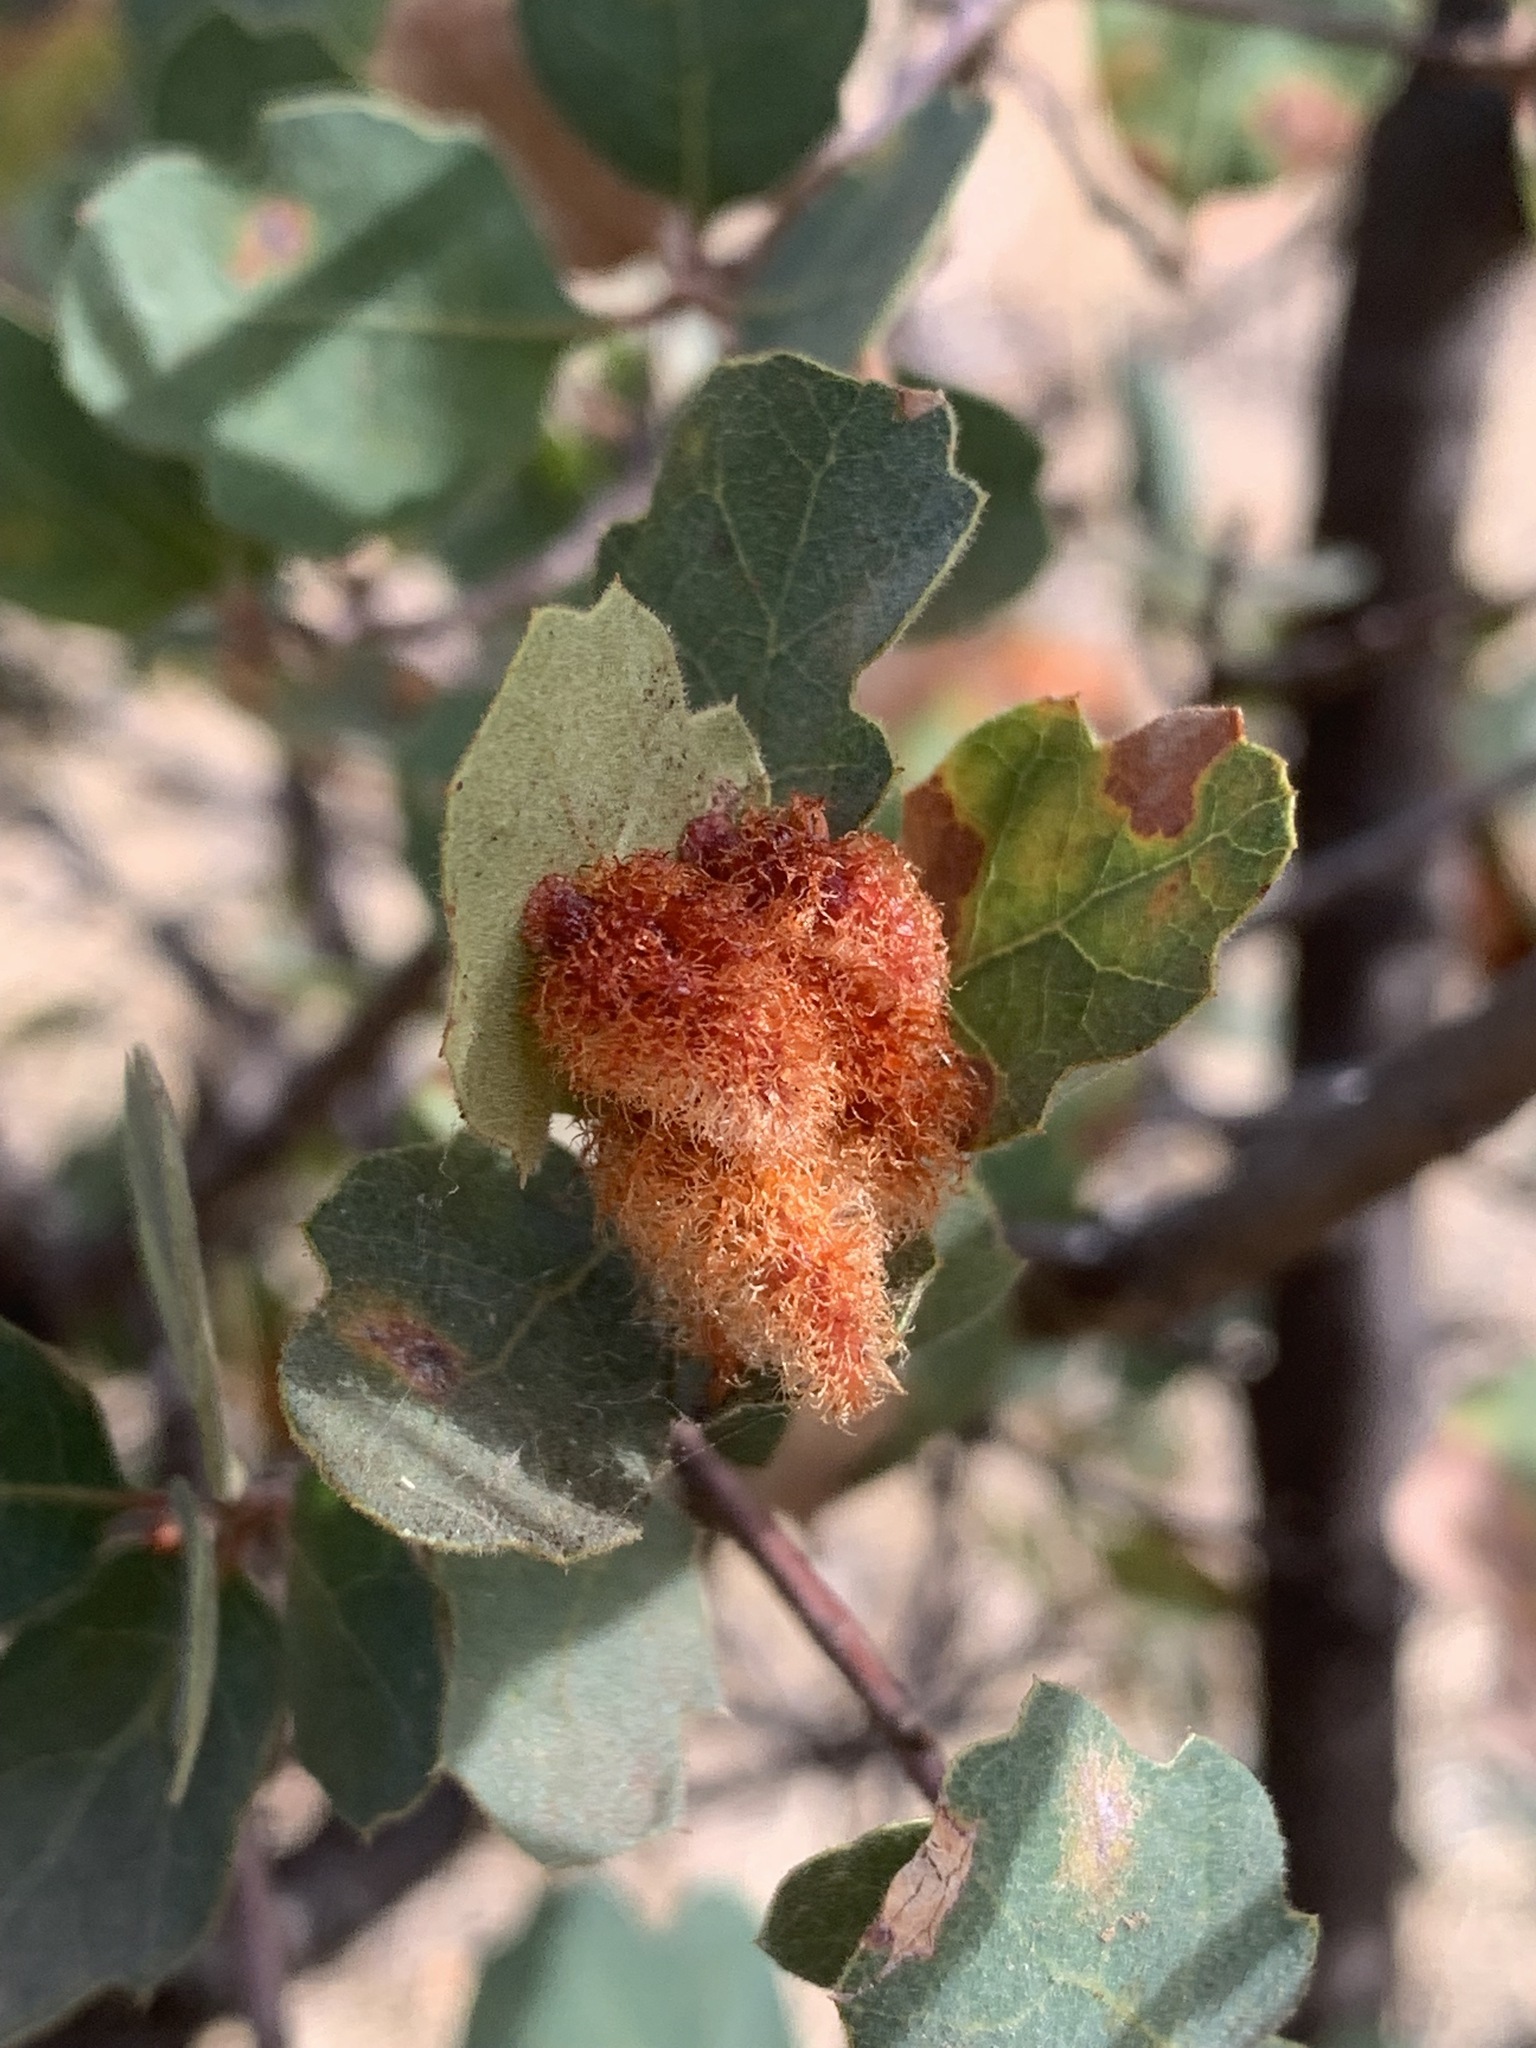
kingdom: Animalia
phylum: Arthropoda
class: Insecta
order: Hymenoptera
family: Cynipidae
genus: Andricus
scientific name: Andricus
